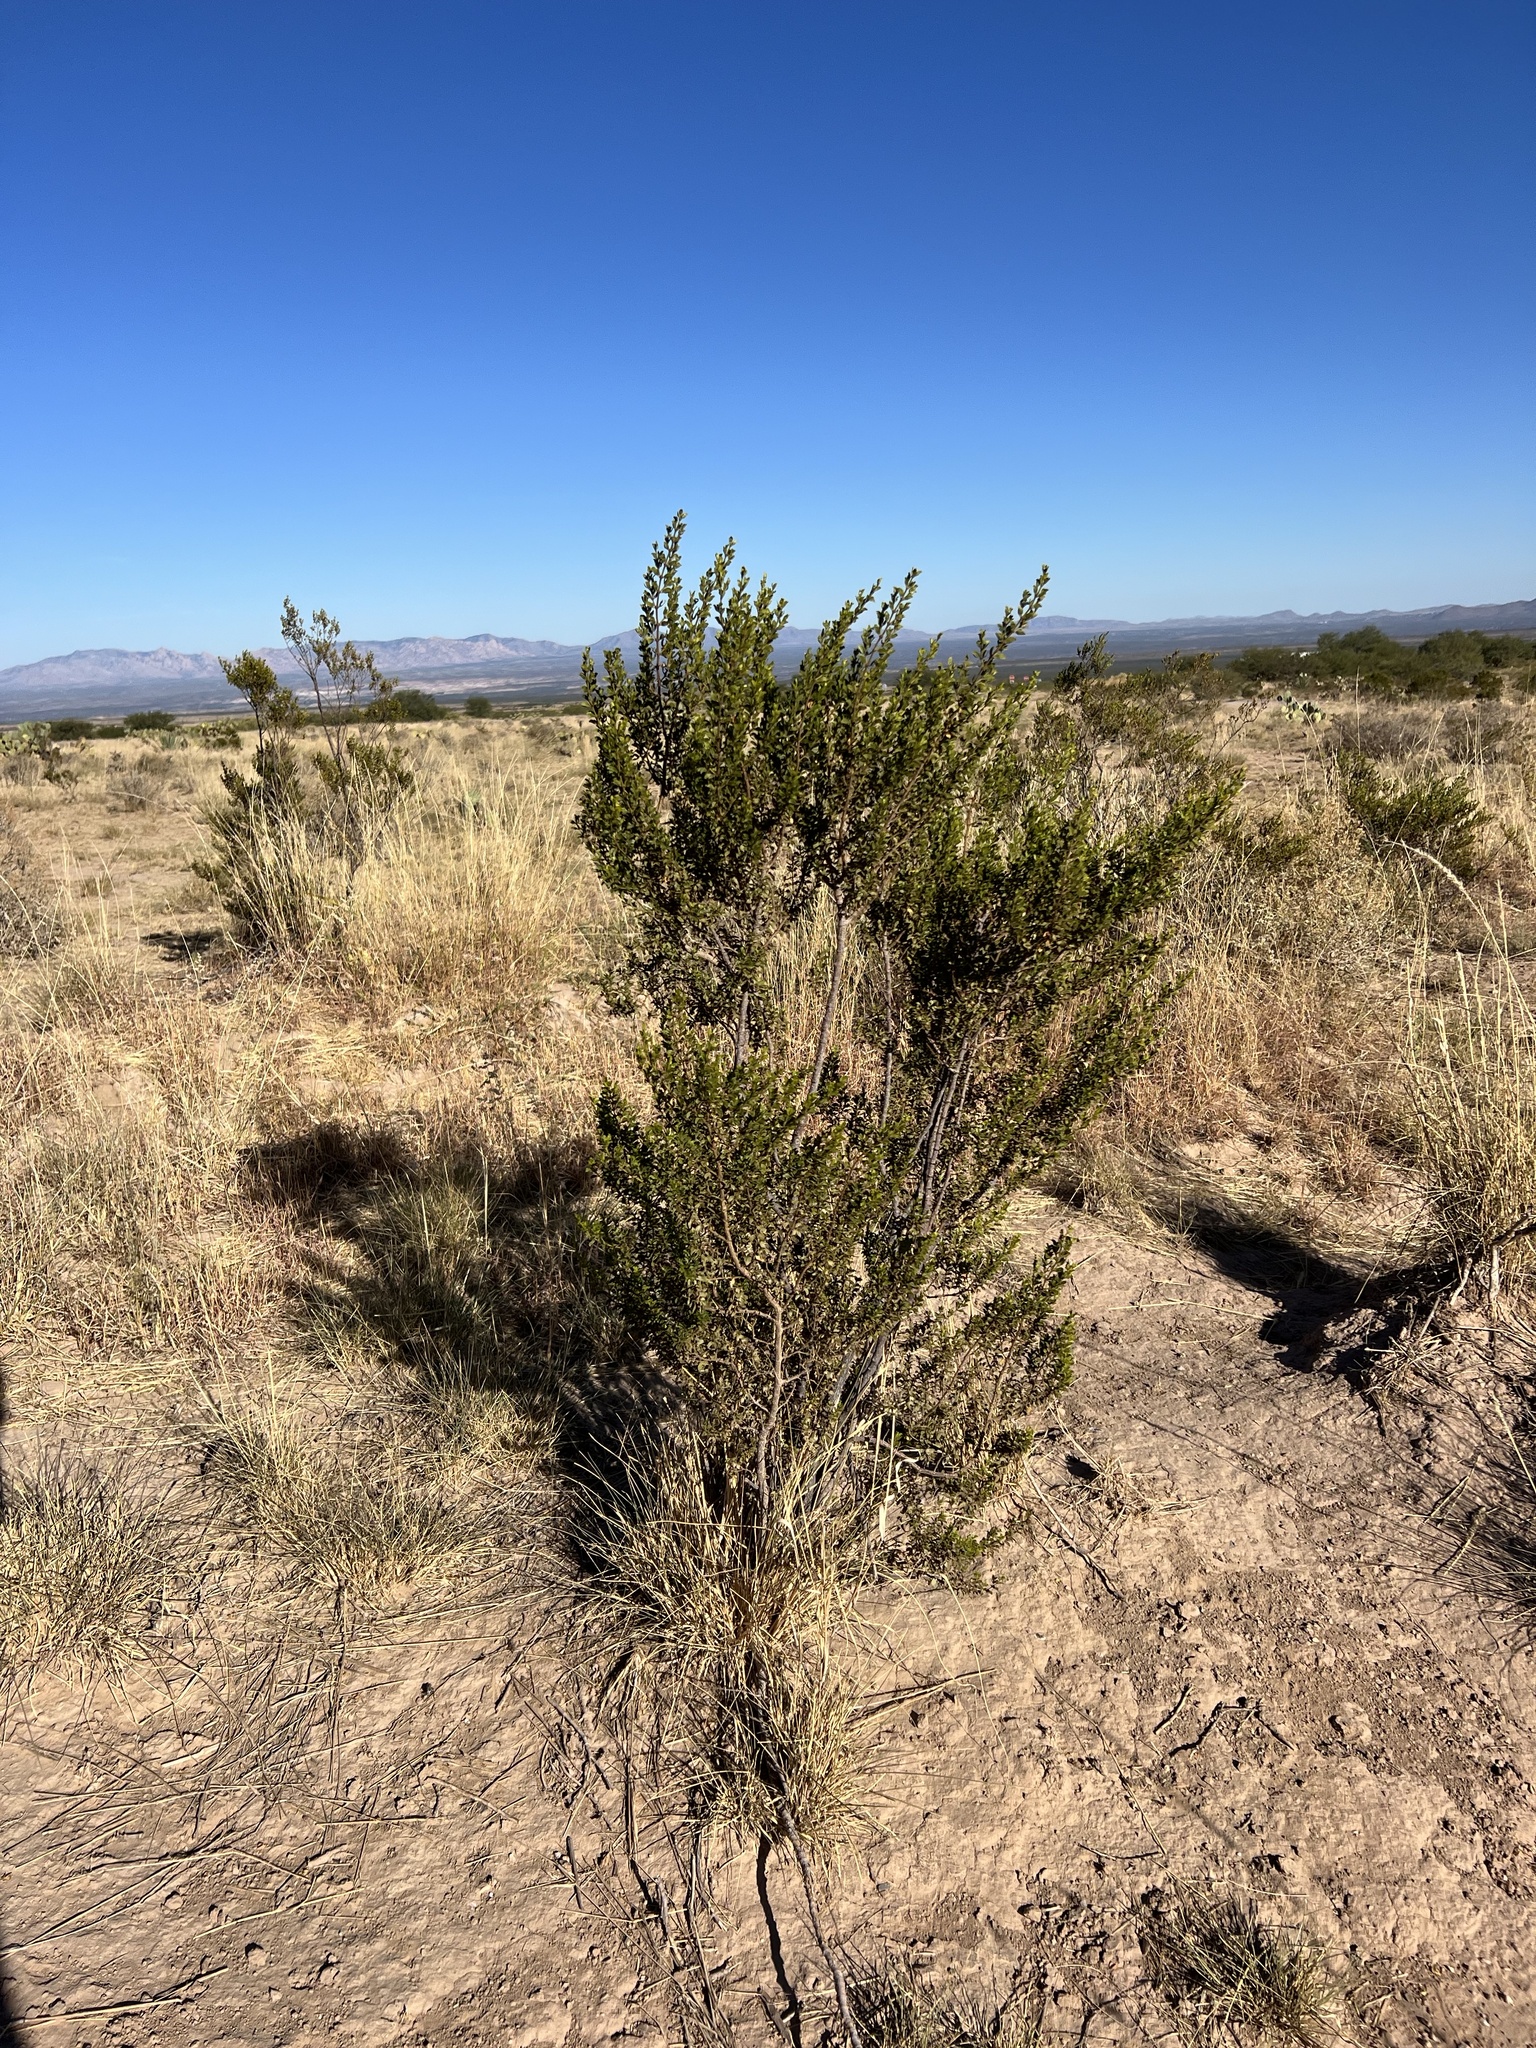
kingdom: Plantae
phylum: Tracheophyta
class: Magnoliopsida
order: Zygophyllales
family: Zygophyllaceae
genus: Larrea
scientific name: Larrea tridentata
